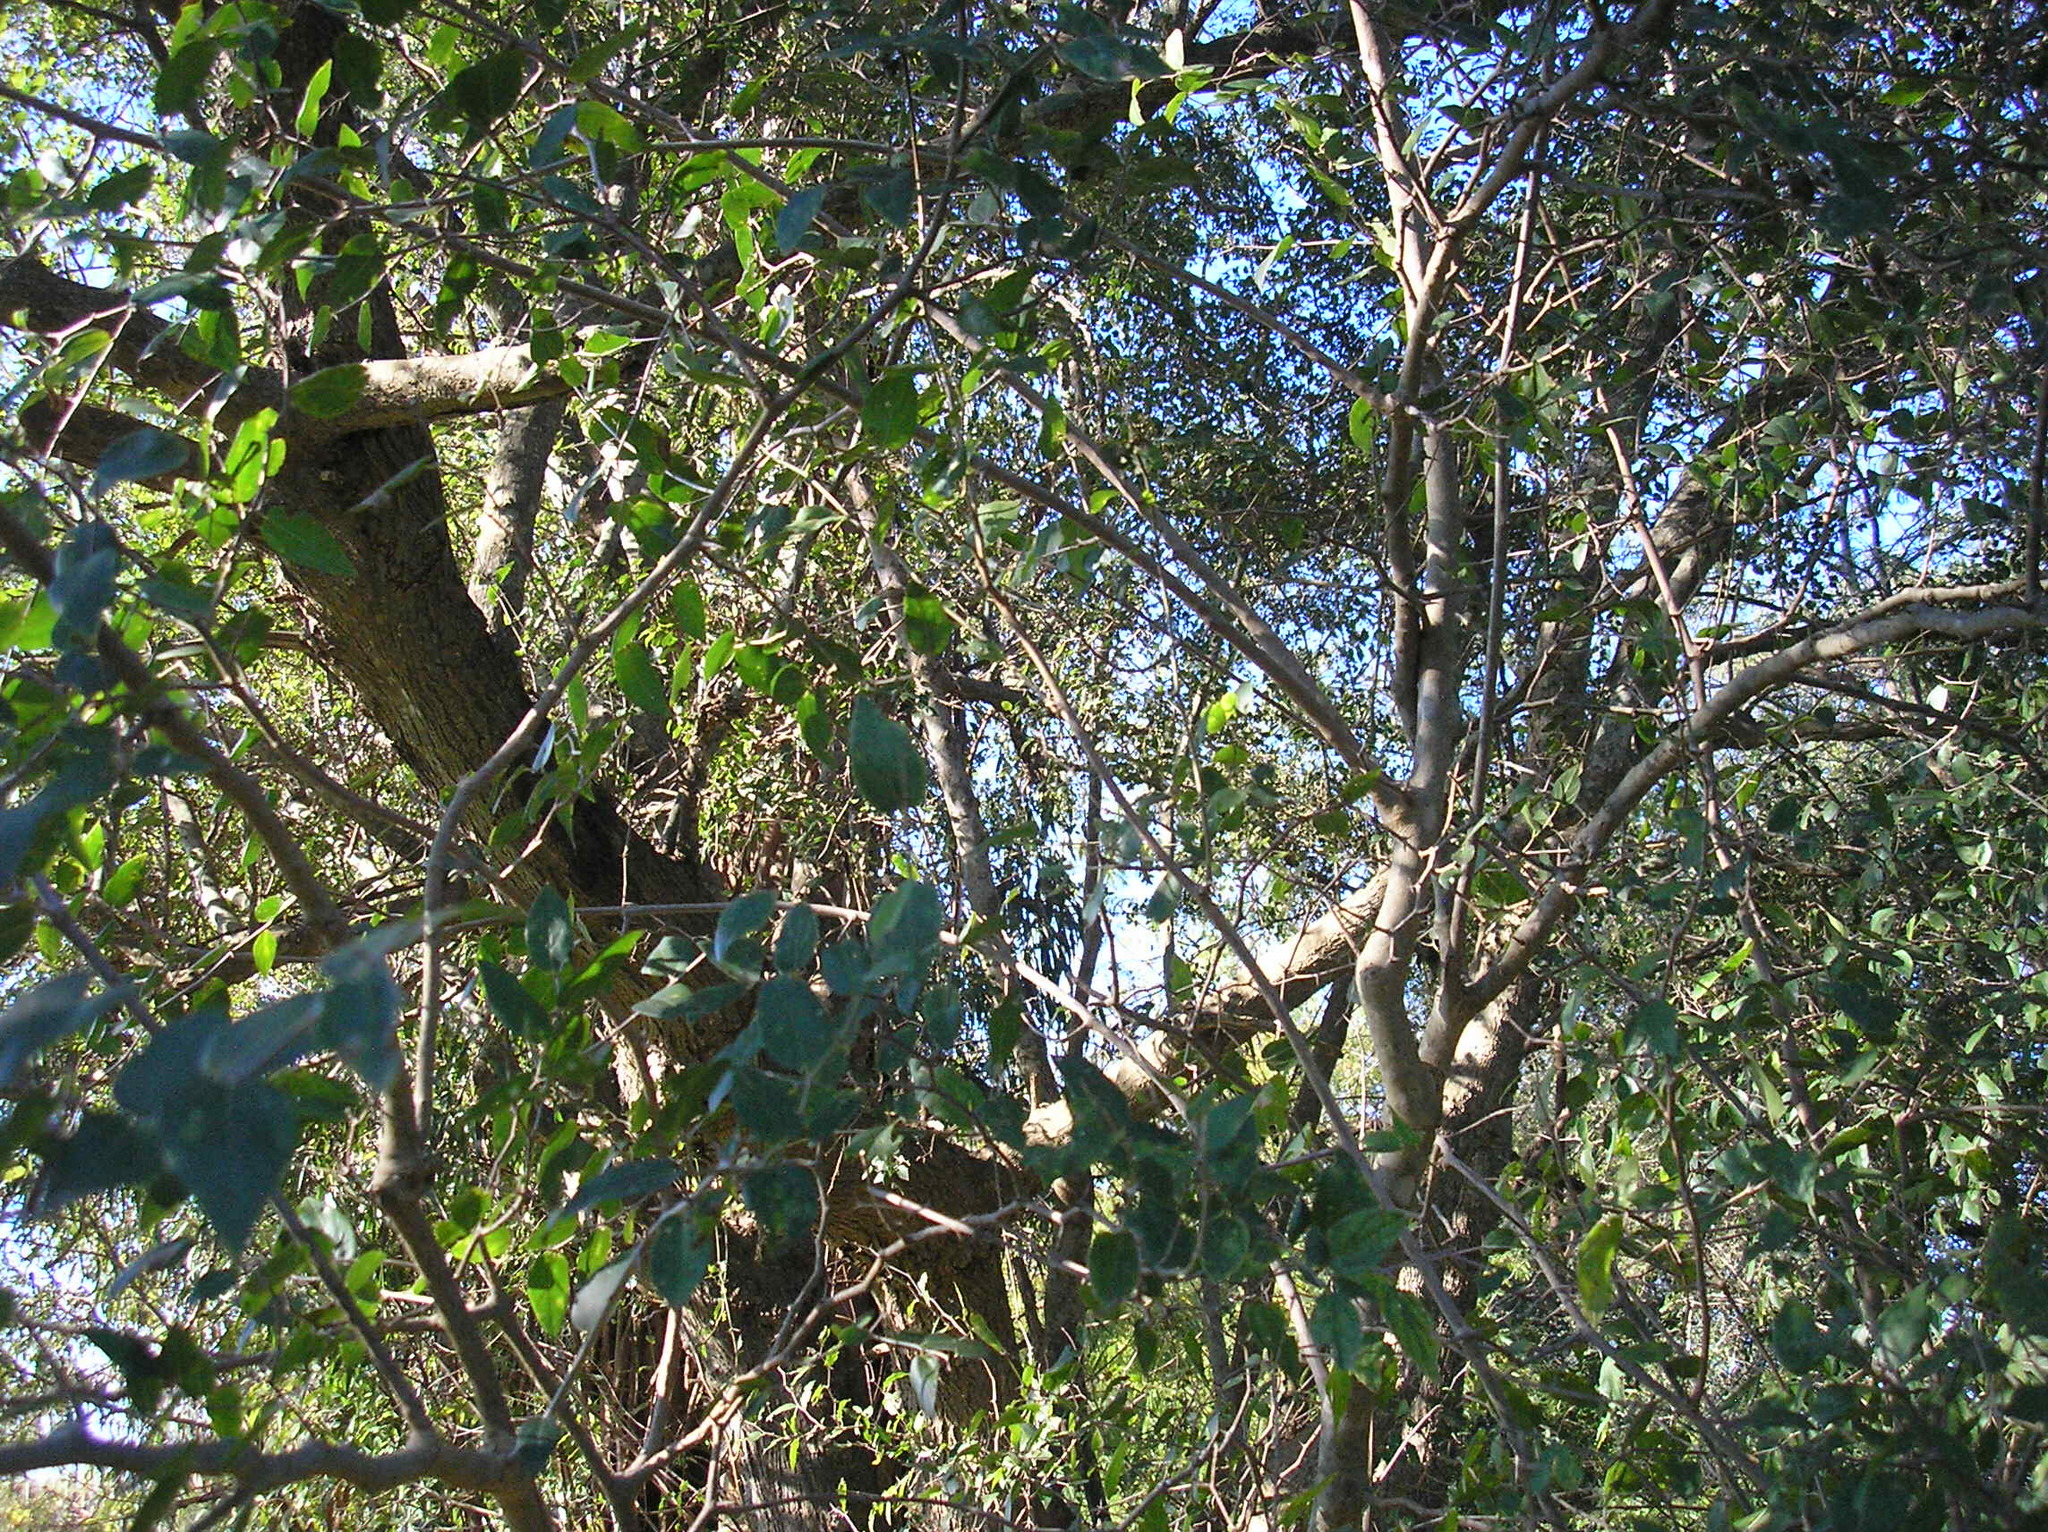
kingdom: Plantae
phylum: Tracheophyta
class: Magnoliopsida
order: Rosales
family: Cannabaceae
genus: Celtis
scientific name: Celtis tala
